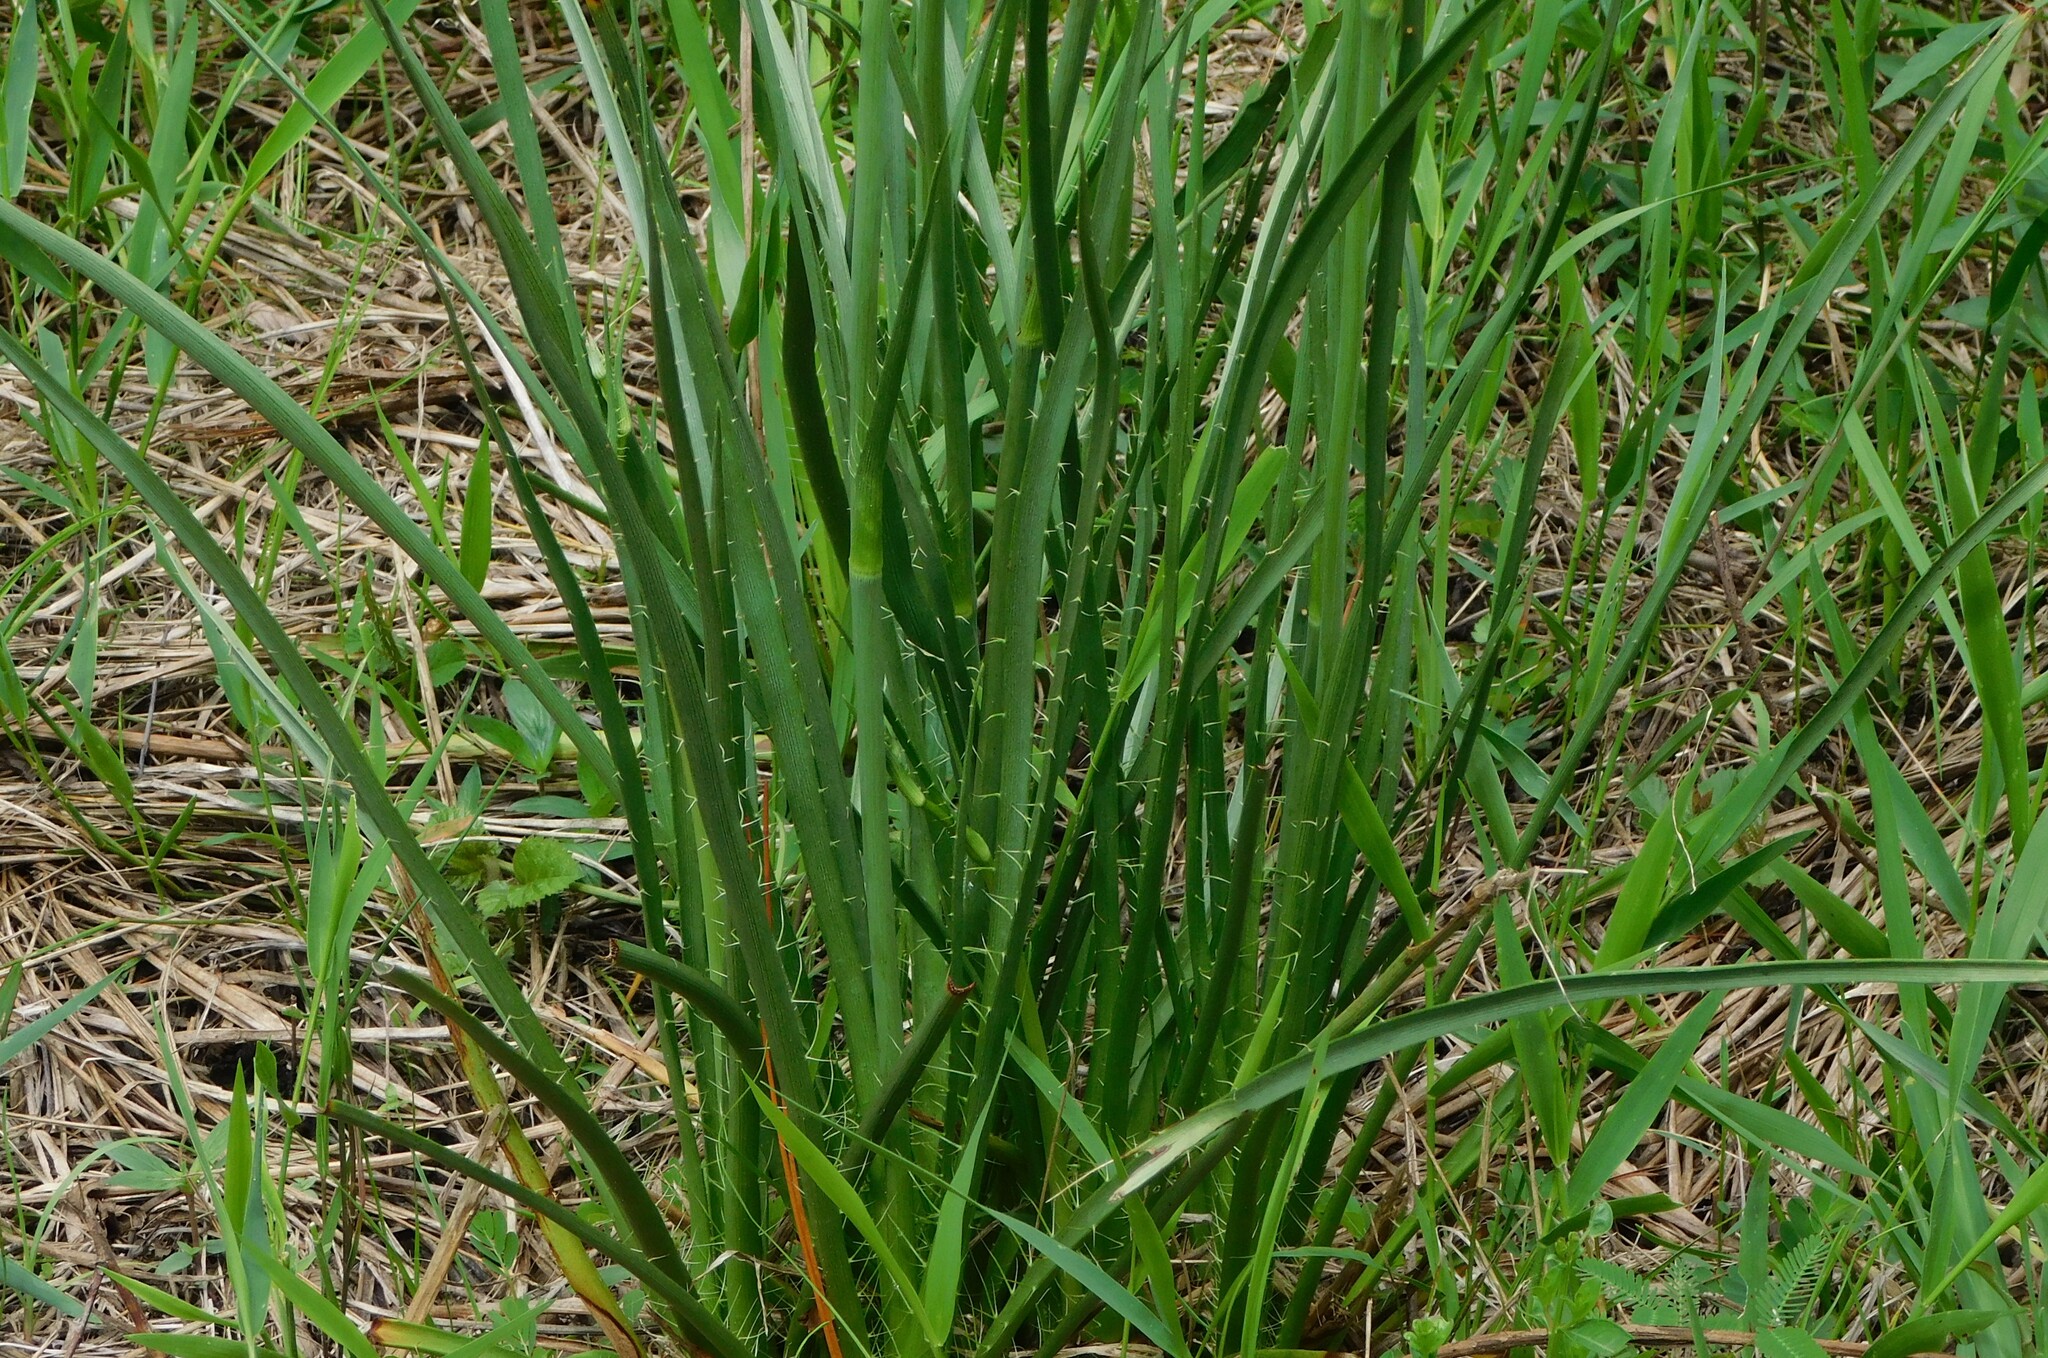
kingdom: Plantae
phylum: Tracheophyta
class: Magnoliopsida
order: Apiales
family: Apiaceae
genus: Eryngium
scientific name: Eryngium yuccifolium
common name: Button eryngo
